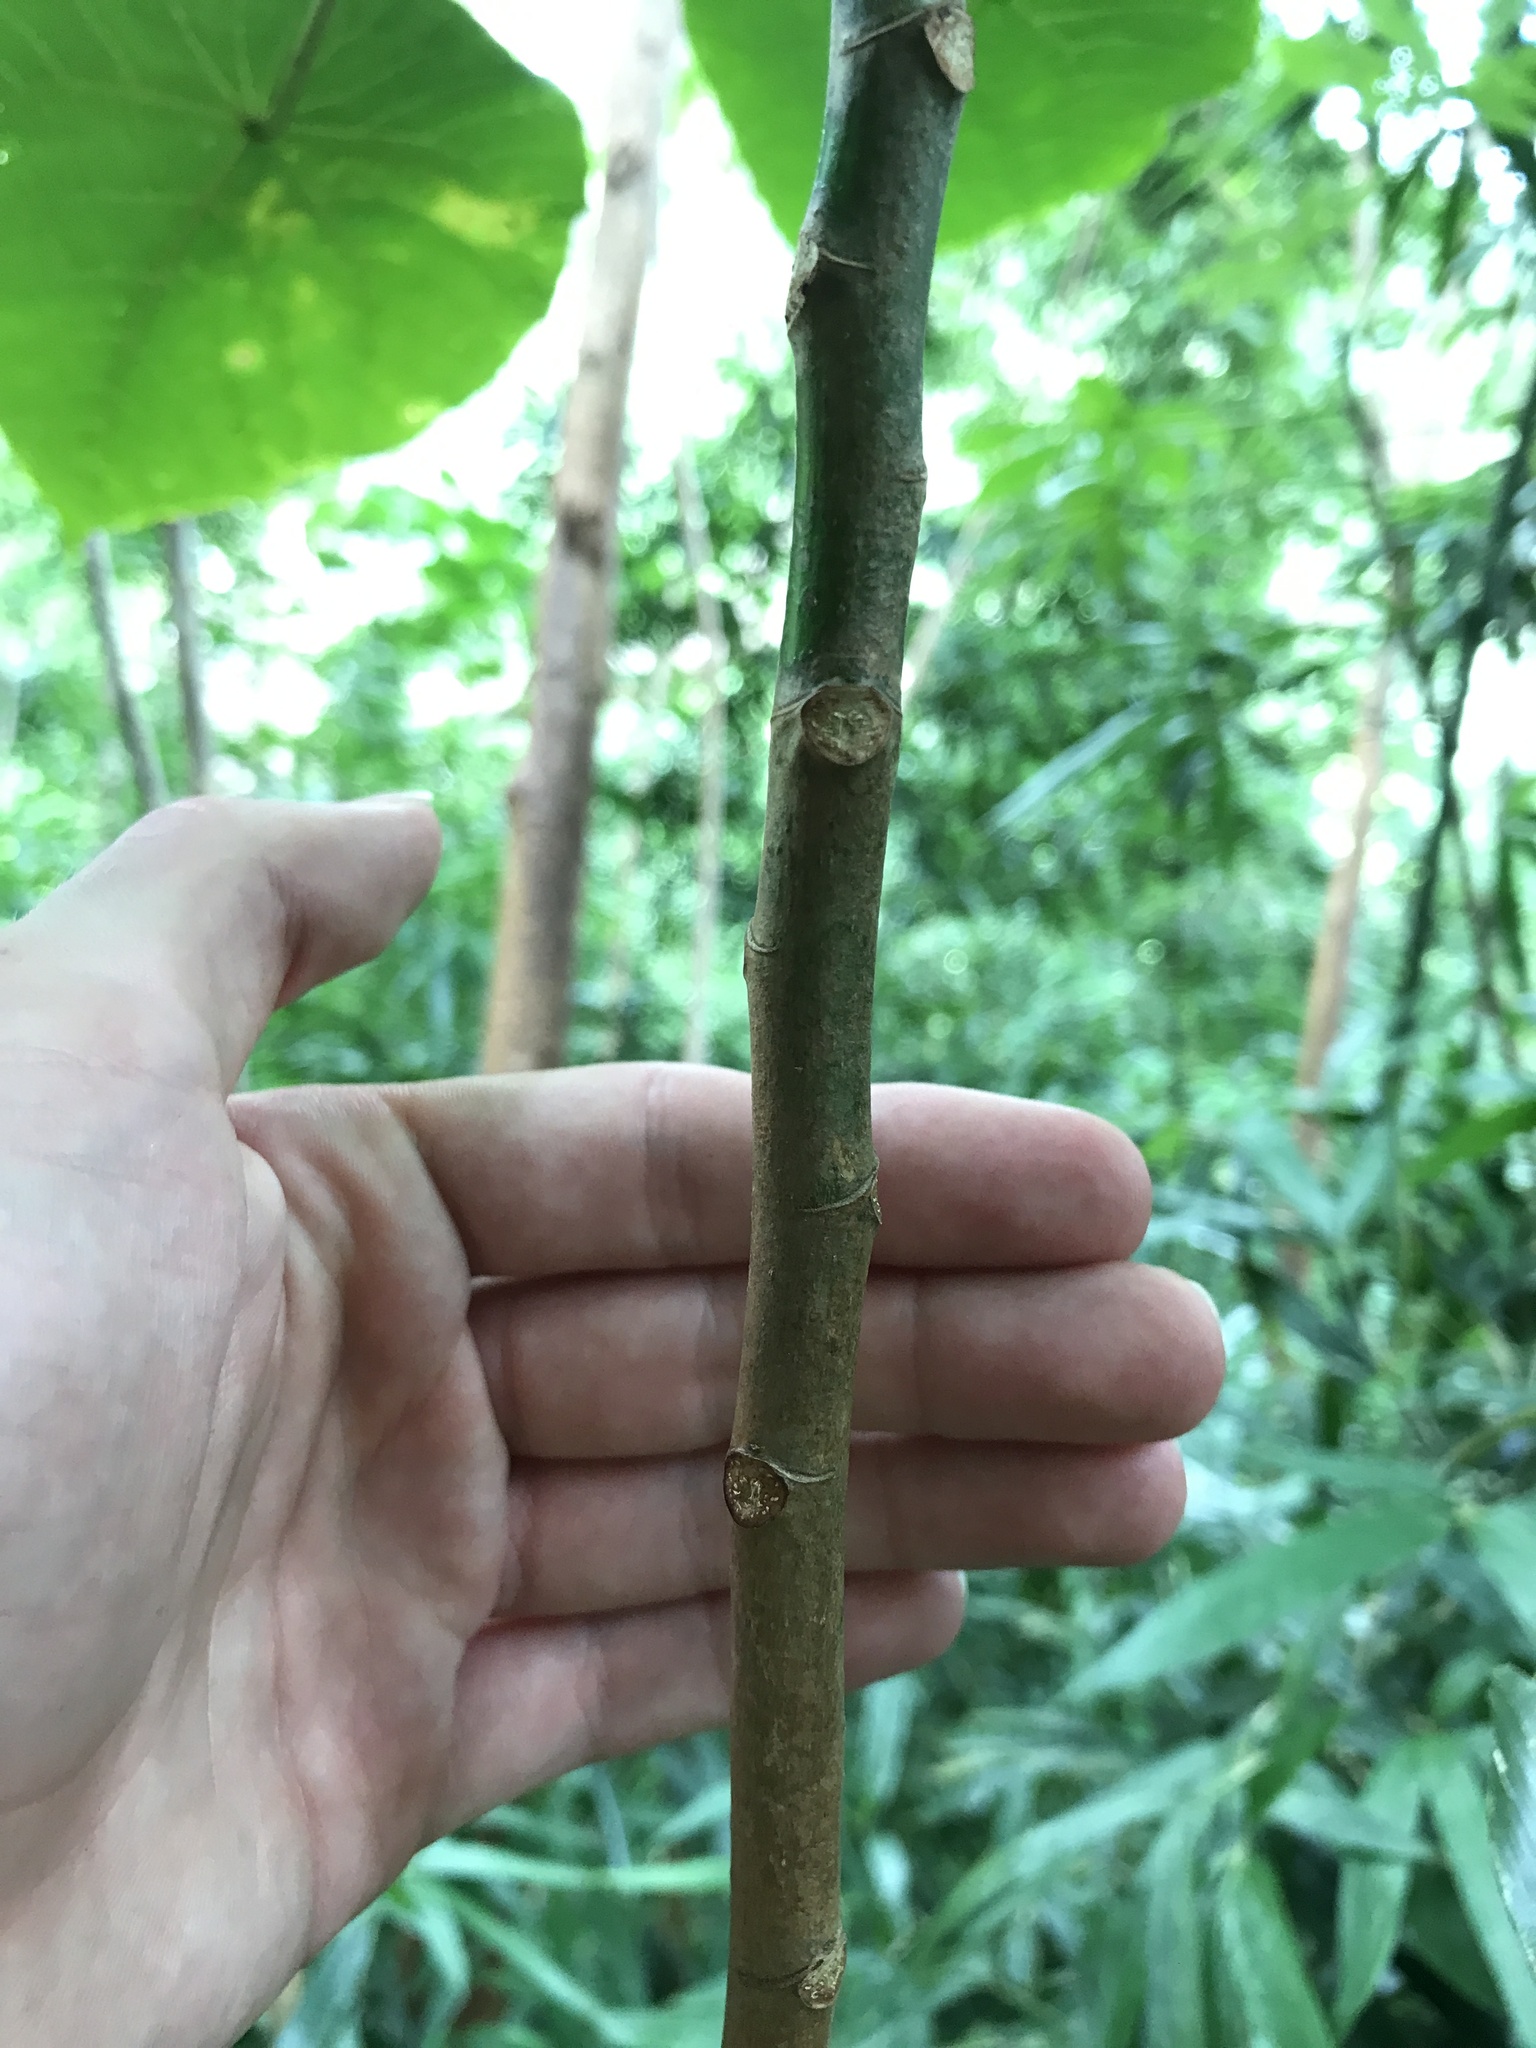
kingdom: Plantae
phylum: Tracheophyta
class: Magnoliopsida
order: Malpighiales
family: Euphorbiaceae
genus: Macaranga
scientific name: Macaranga tanarius
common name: Parasol leaf tree
